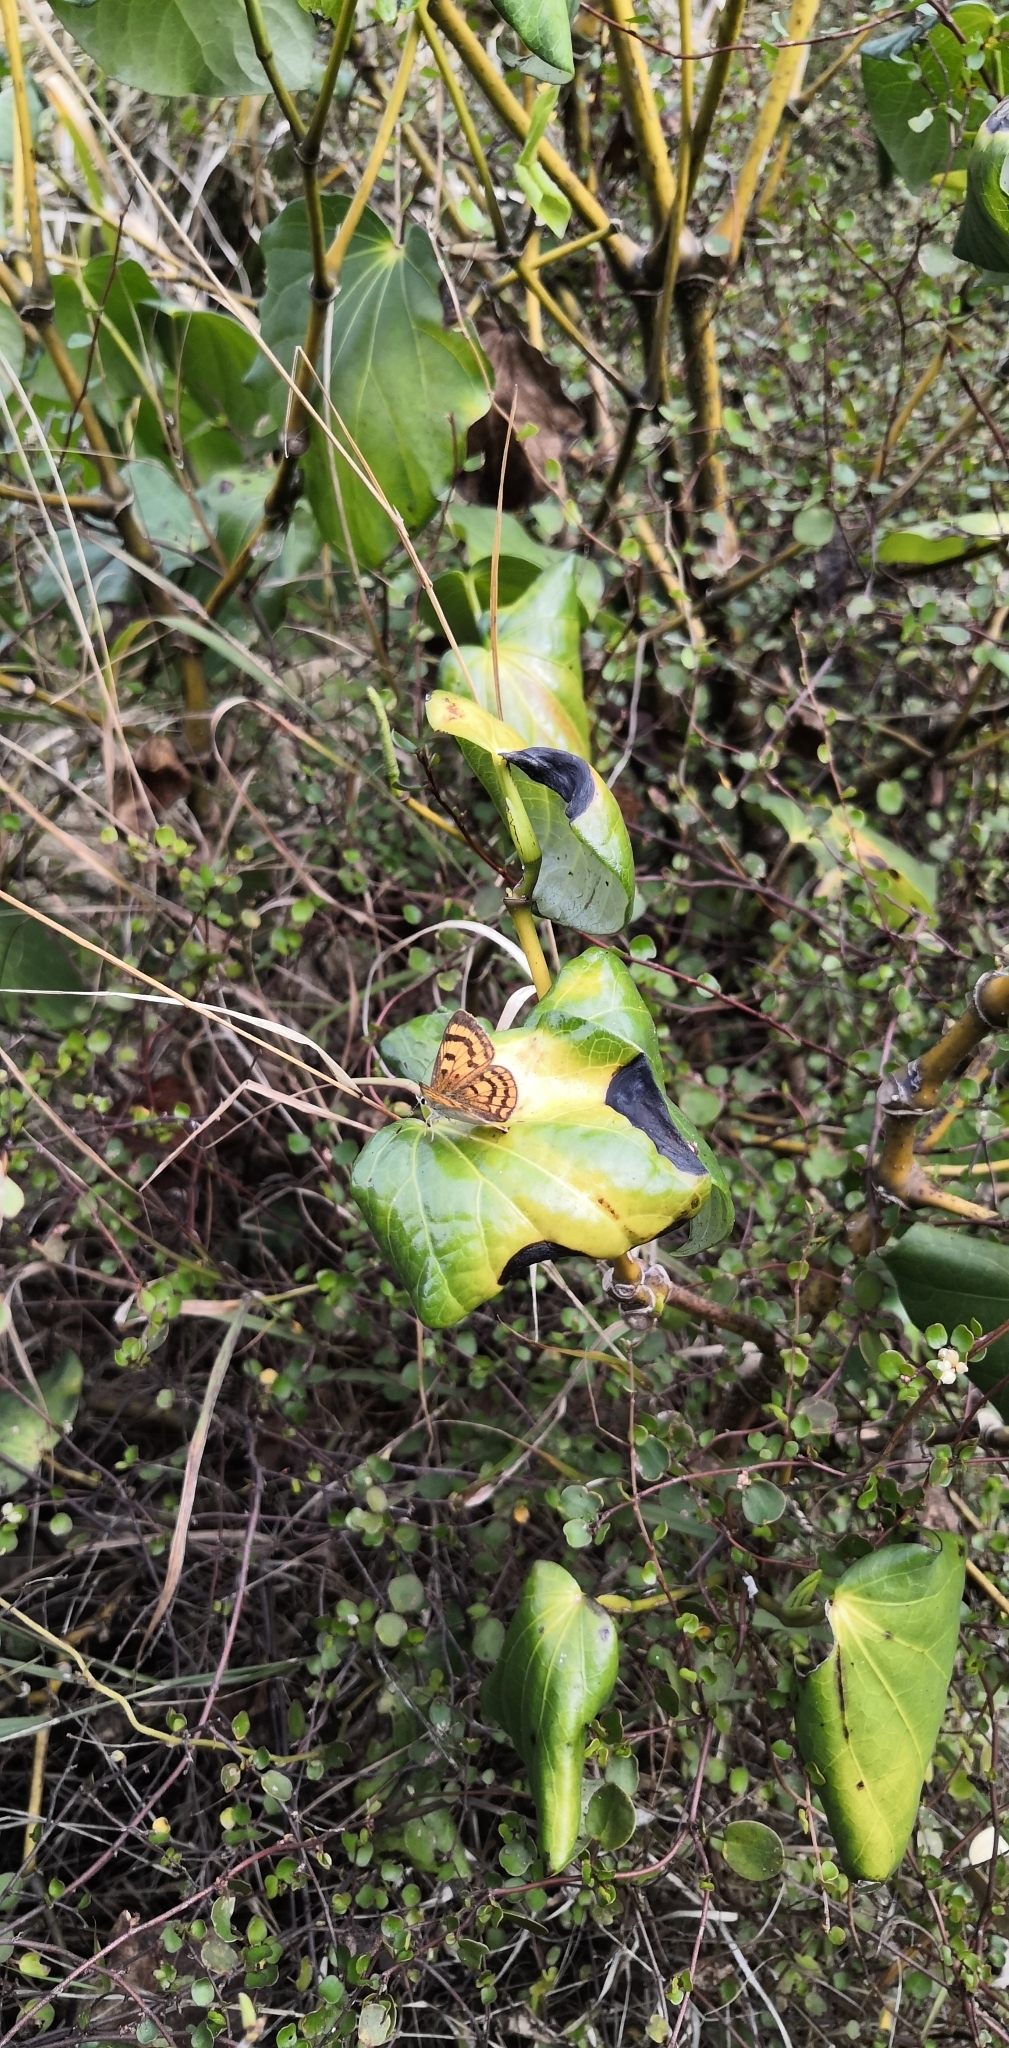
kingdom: Animalia
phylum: Arthropoda
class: Insecta
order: Lepidoptera
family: Lycaenidae
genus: Lycaena
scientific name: Lycaena salustius
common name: North island coastal copper
